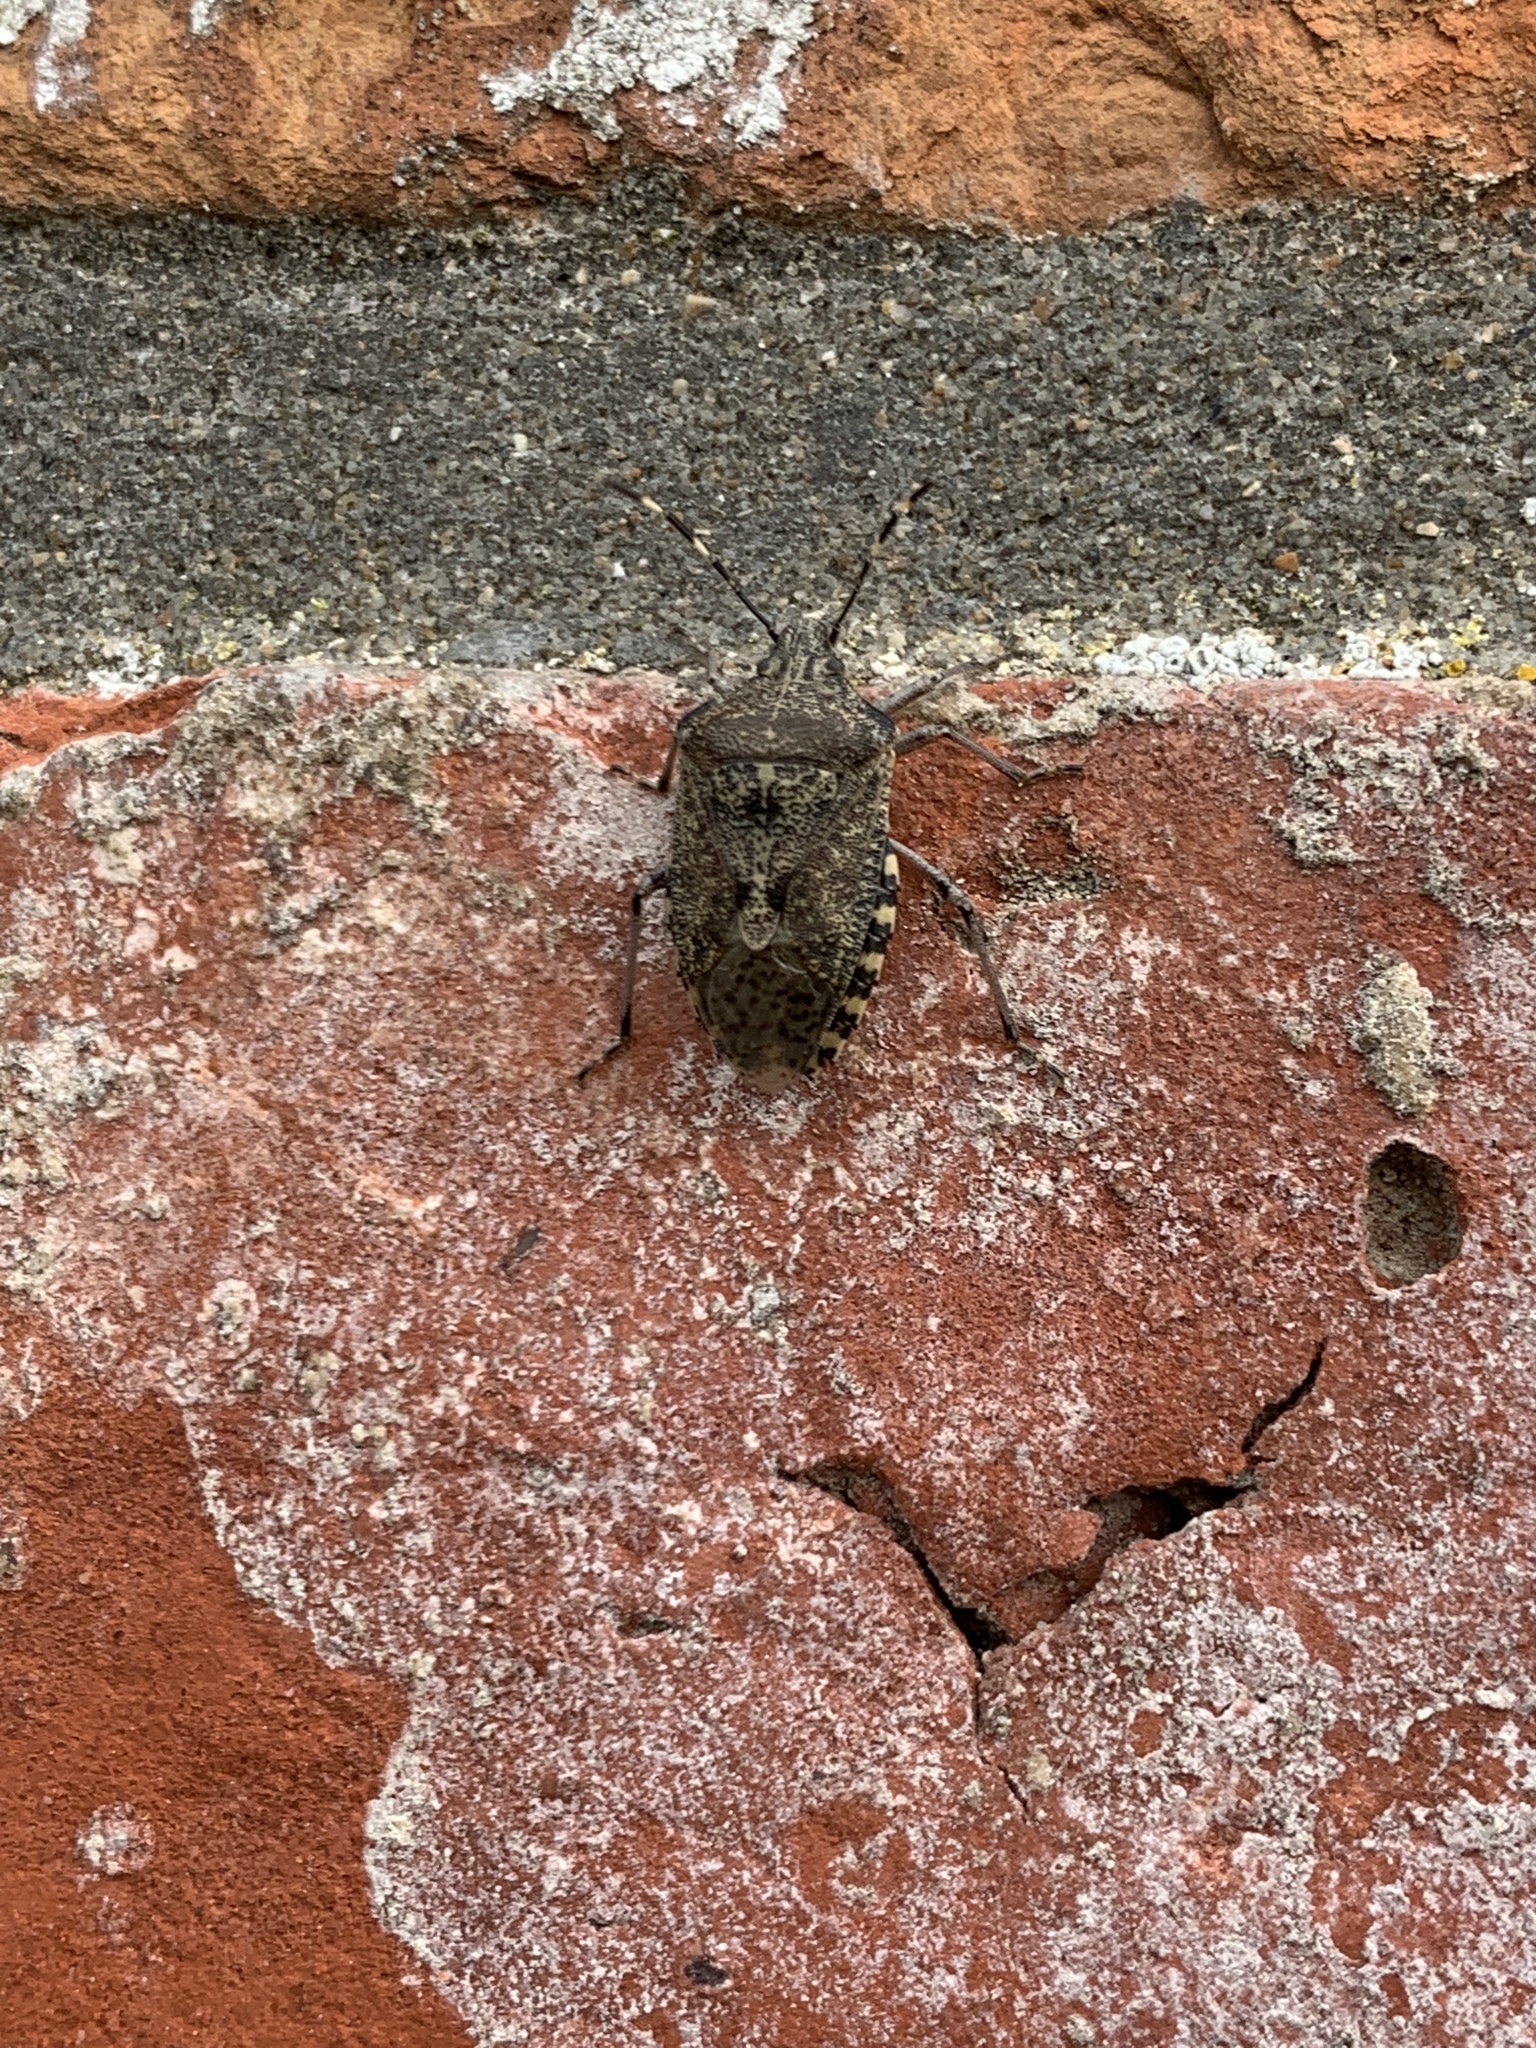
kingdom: Animalia
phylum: Arthropoda
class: Insecta
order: Hemiptera
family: Pentatomidae
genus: Rhaphigaster
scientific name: Rhaphigaster nebulosa
